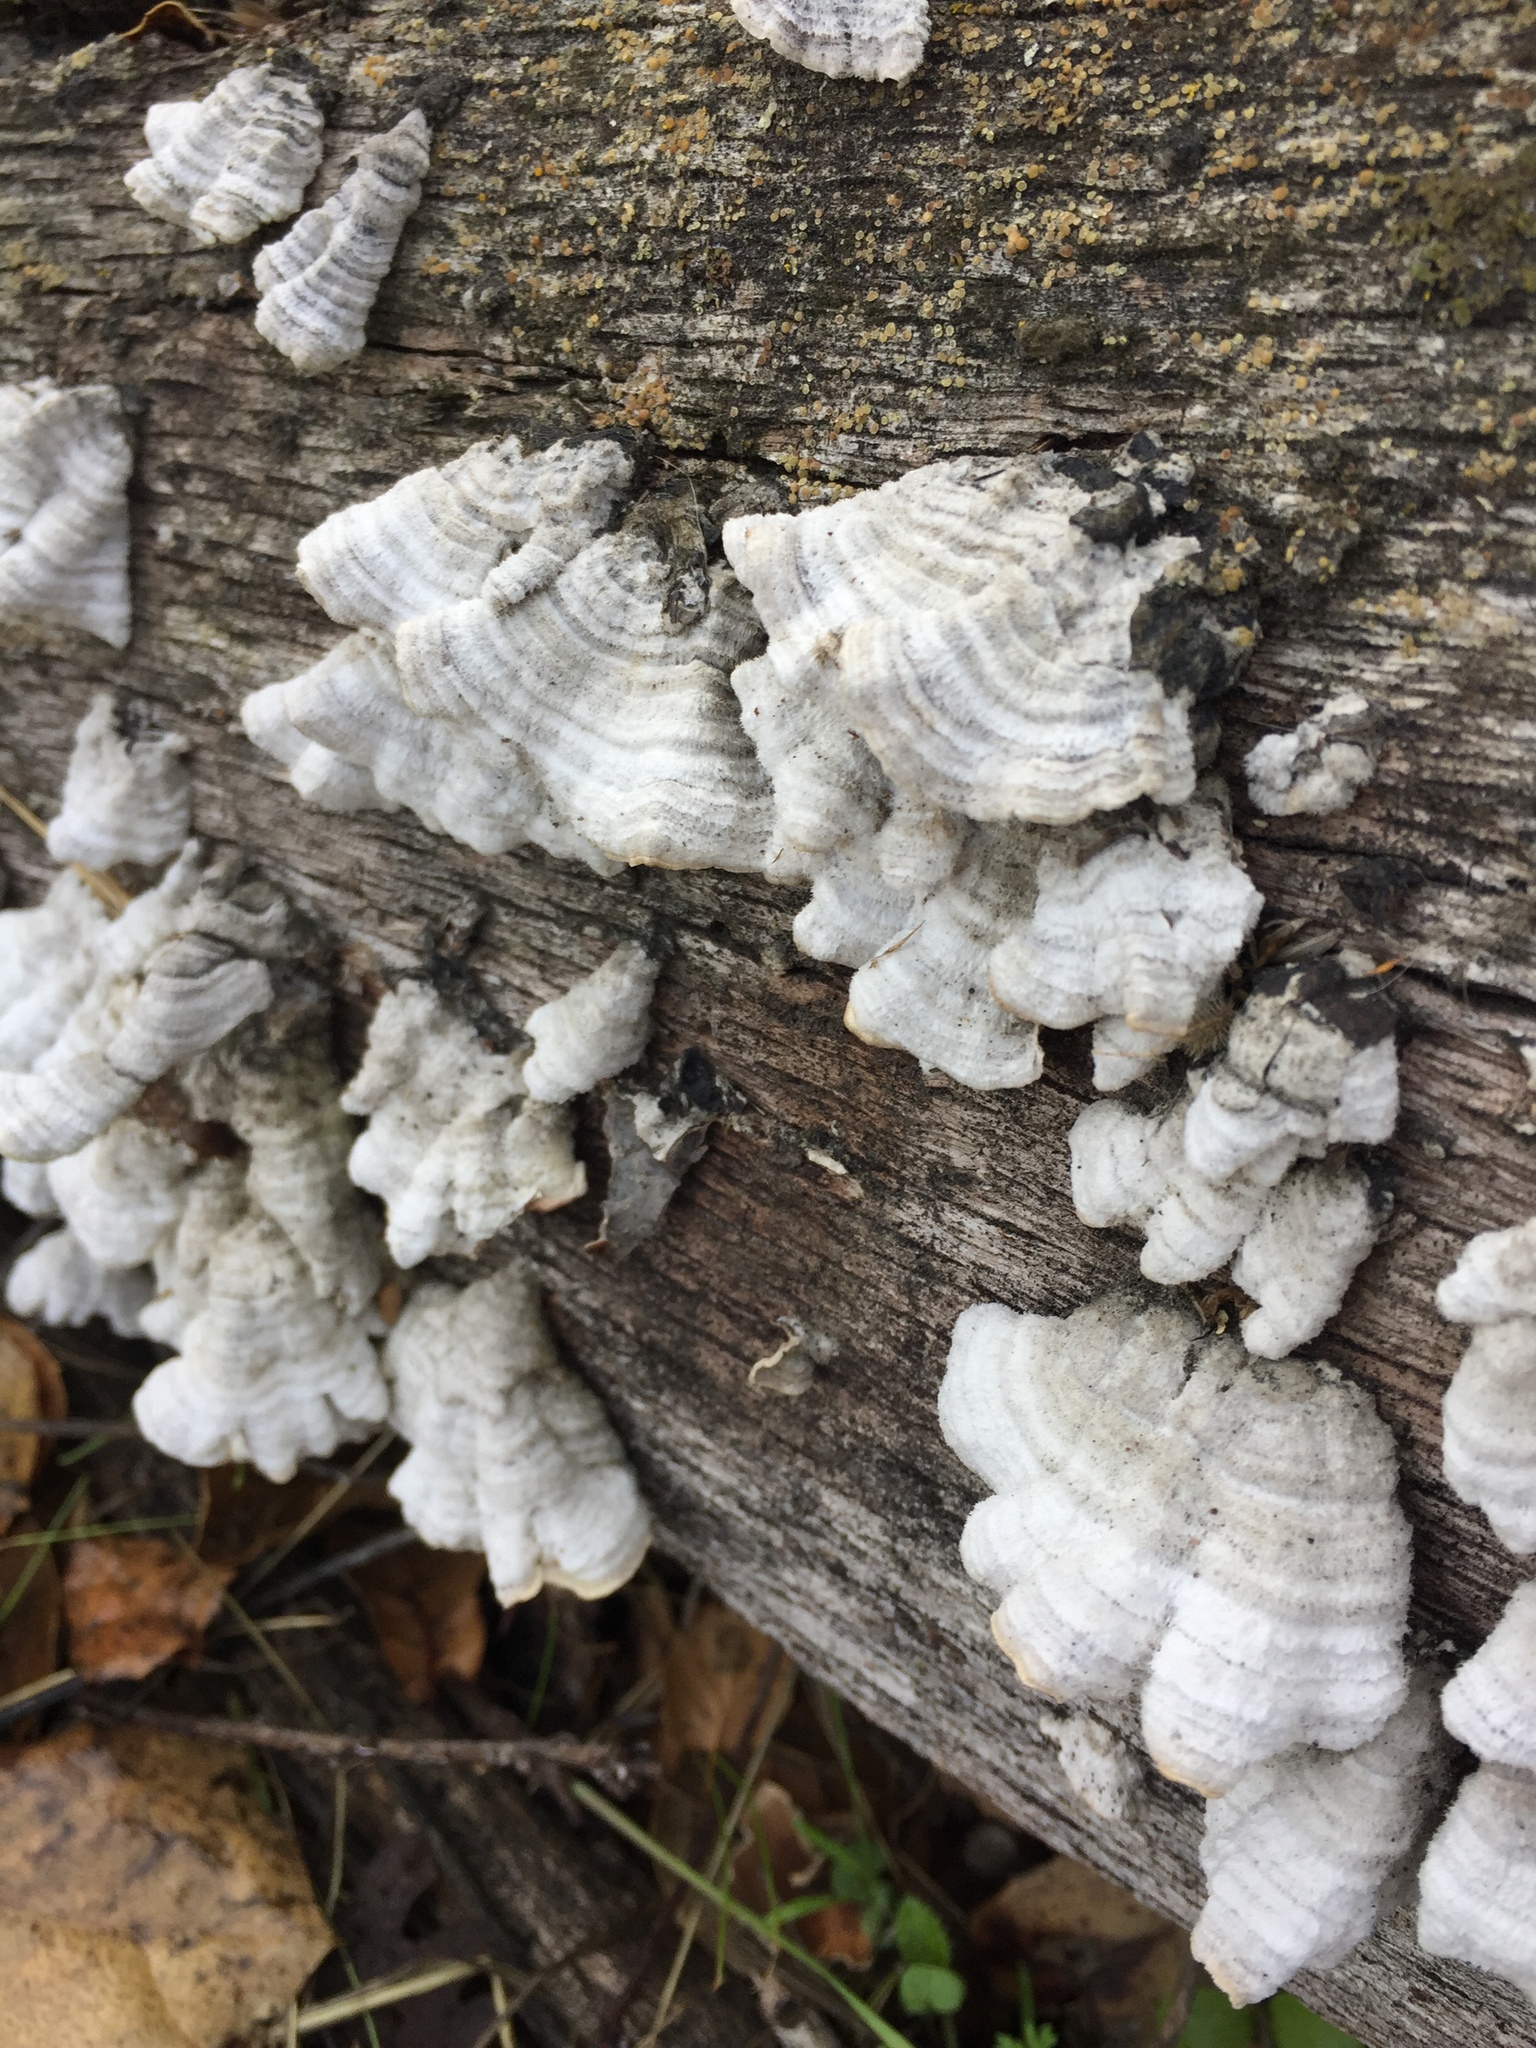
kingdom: Fungi
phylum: Basidiomycota
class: Agaricomycetes
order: Hymenochaetales
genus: Trichaptum
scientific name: Trichaptum abietinum
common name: Purplepore bracket
